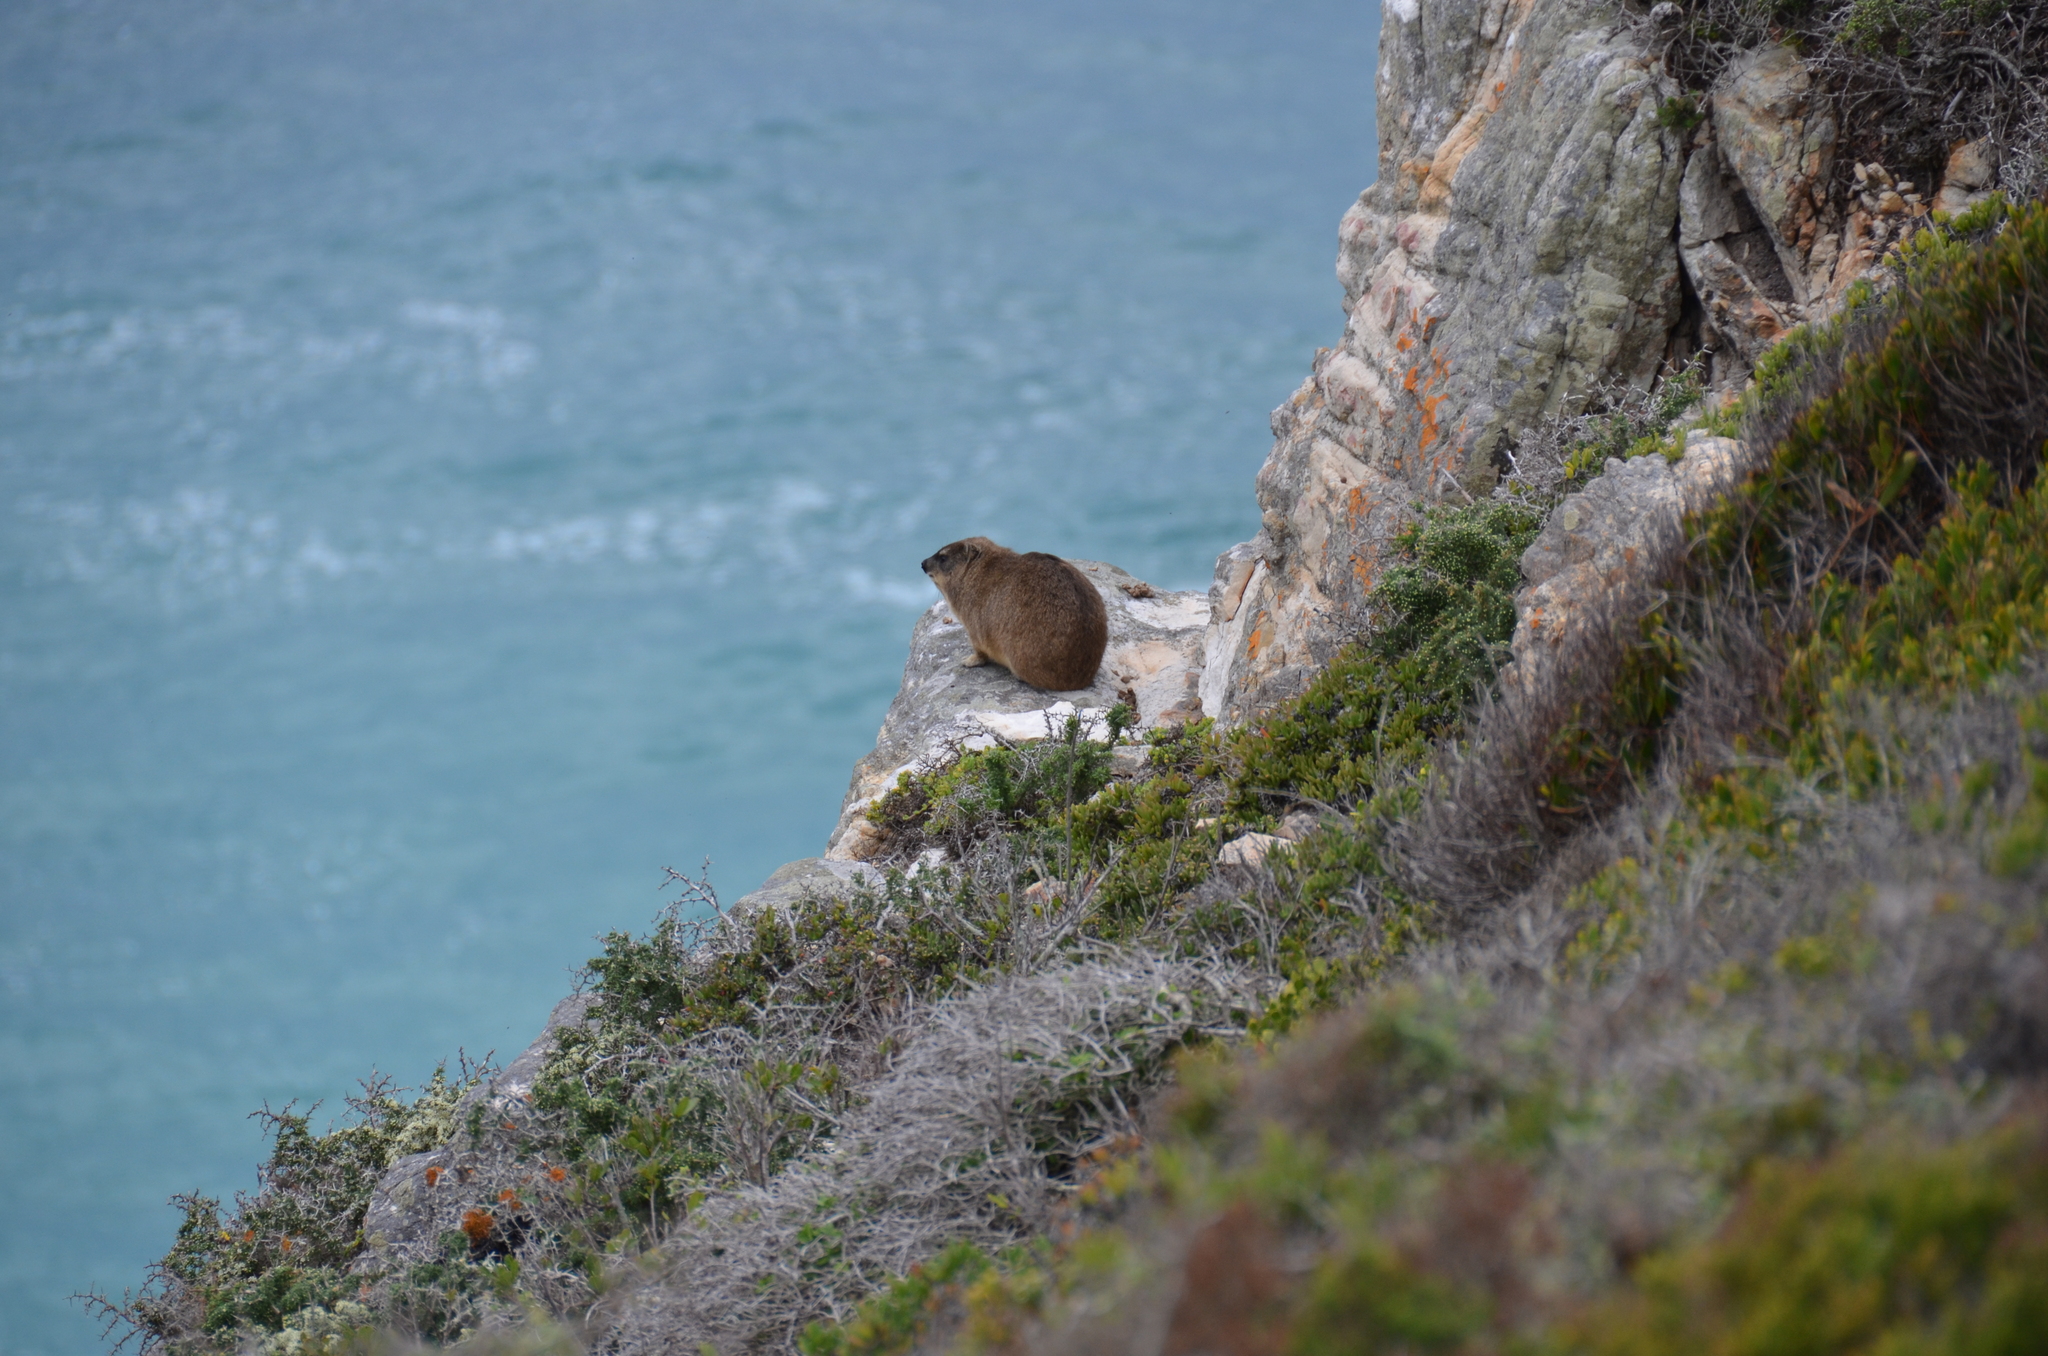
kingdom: Animalia
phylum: Chordata
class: Mammalia
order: Hyracoidea
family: Procaviidae
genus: Procavia
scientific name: Procavia capensis
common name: Rock hyrax
